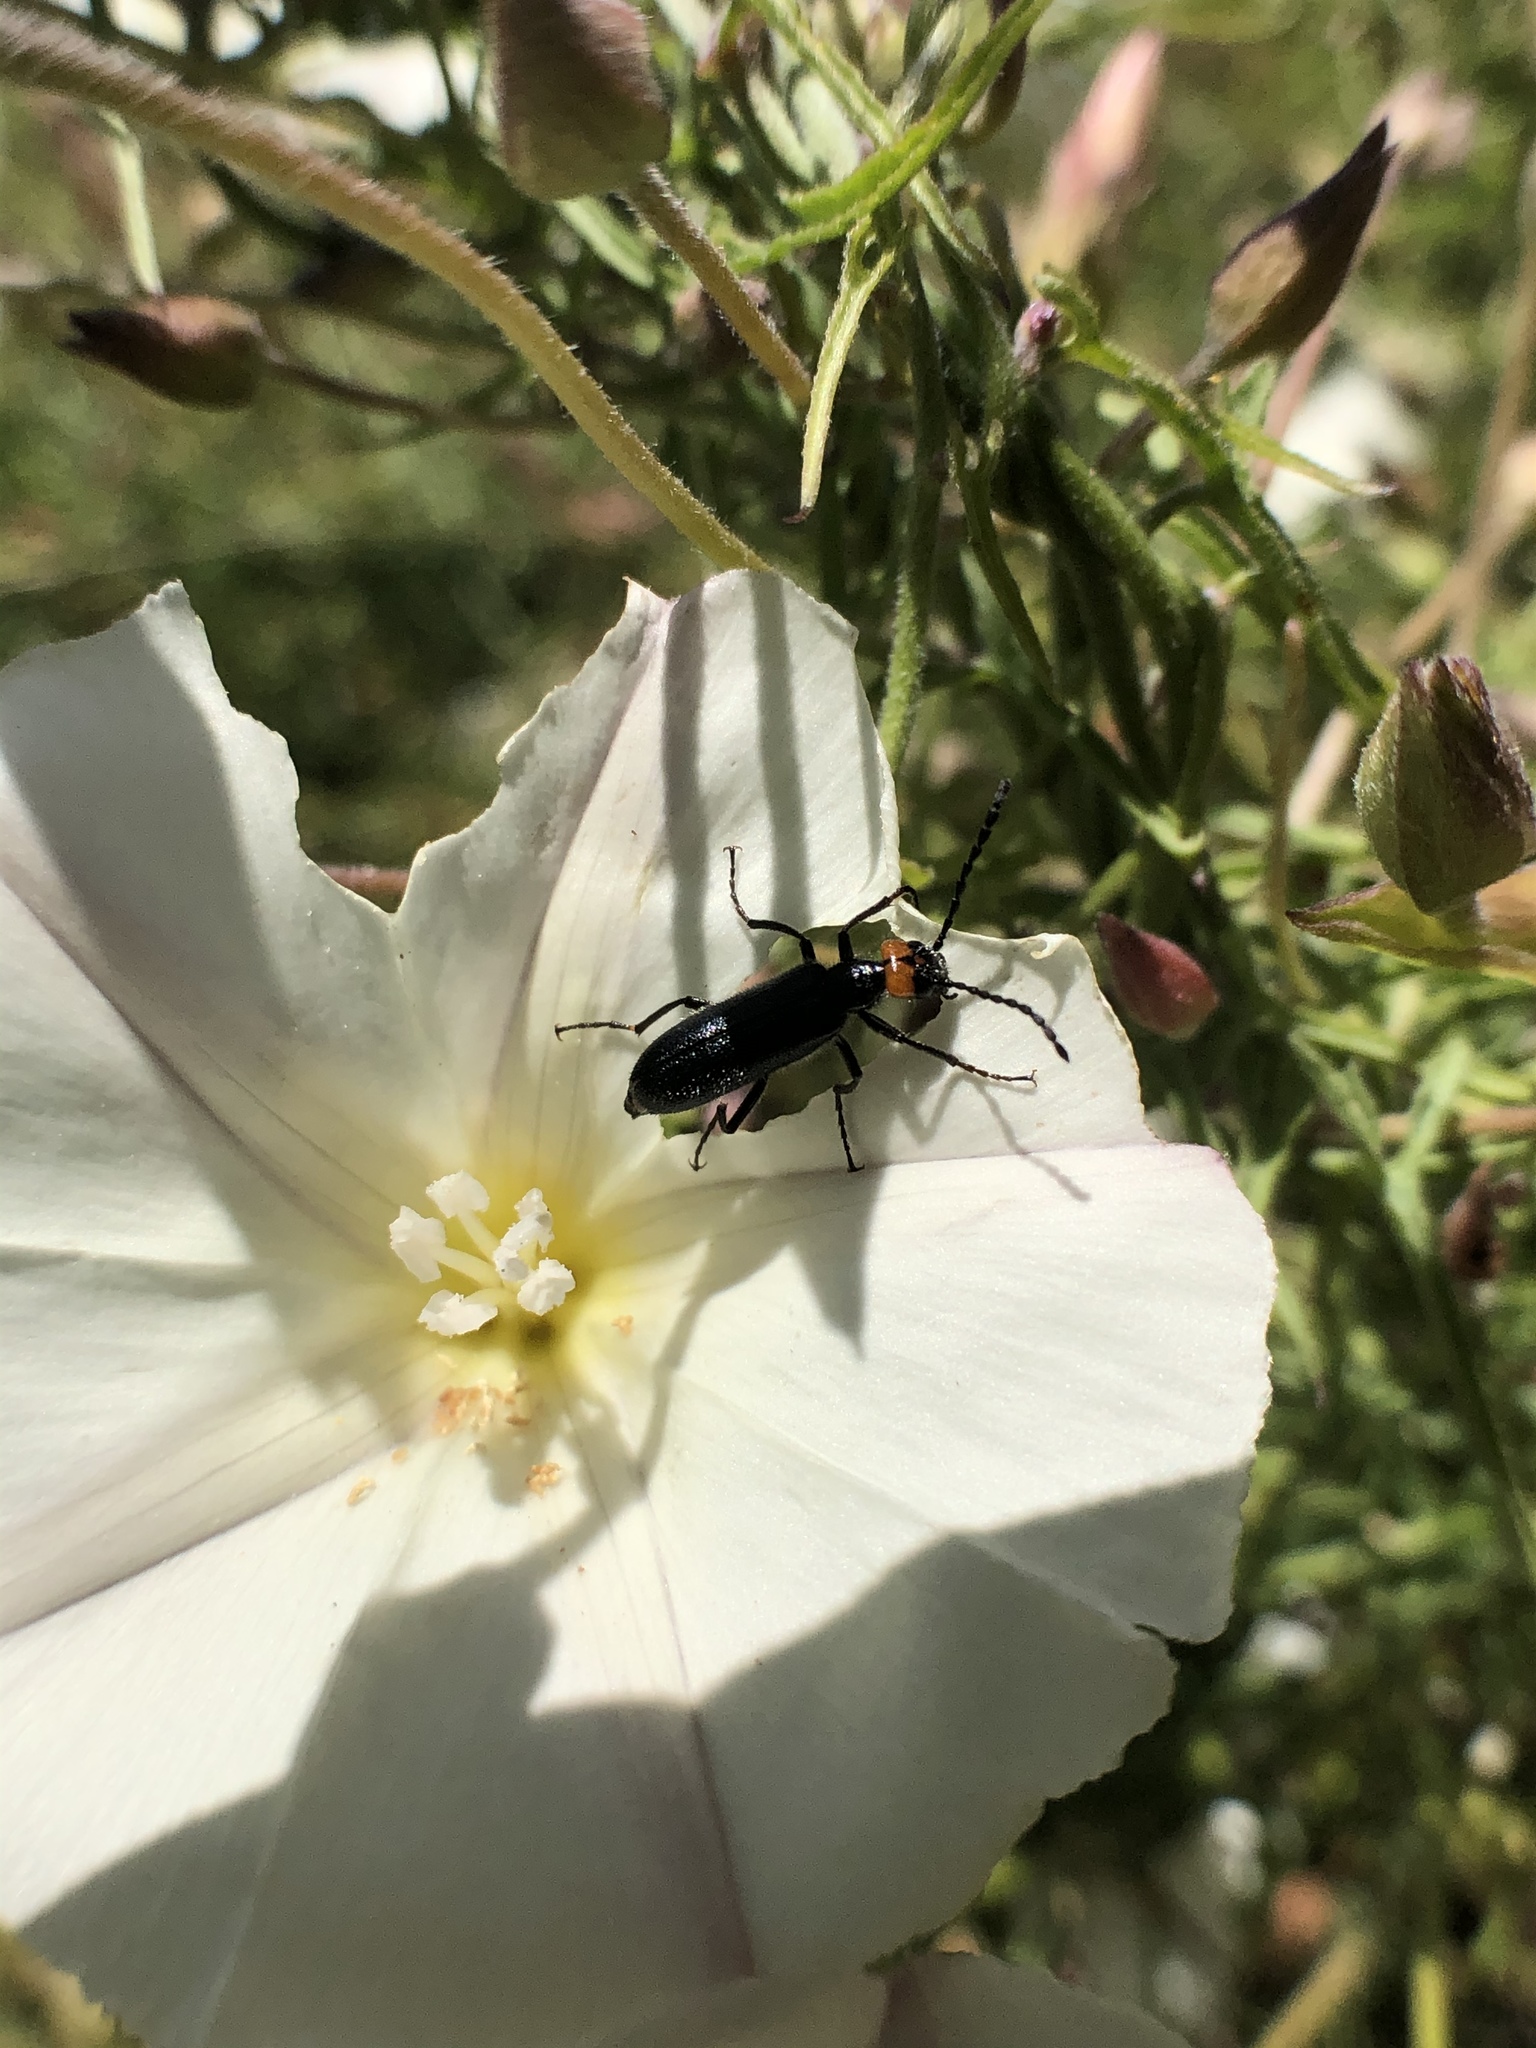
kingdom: Animalia
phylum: Arthropoda
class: Insecta
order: Coleoptera
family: Meloidae
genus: Lytta
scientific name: Lytta auriculata
